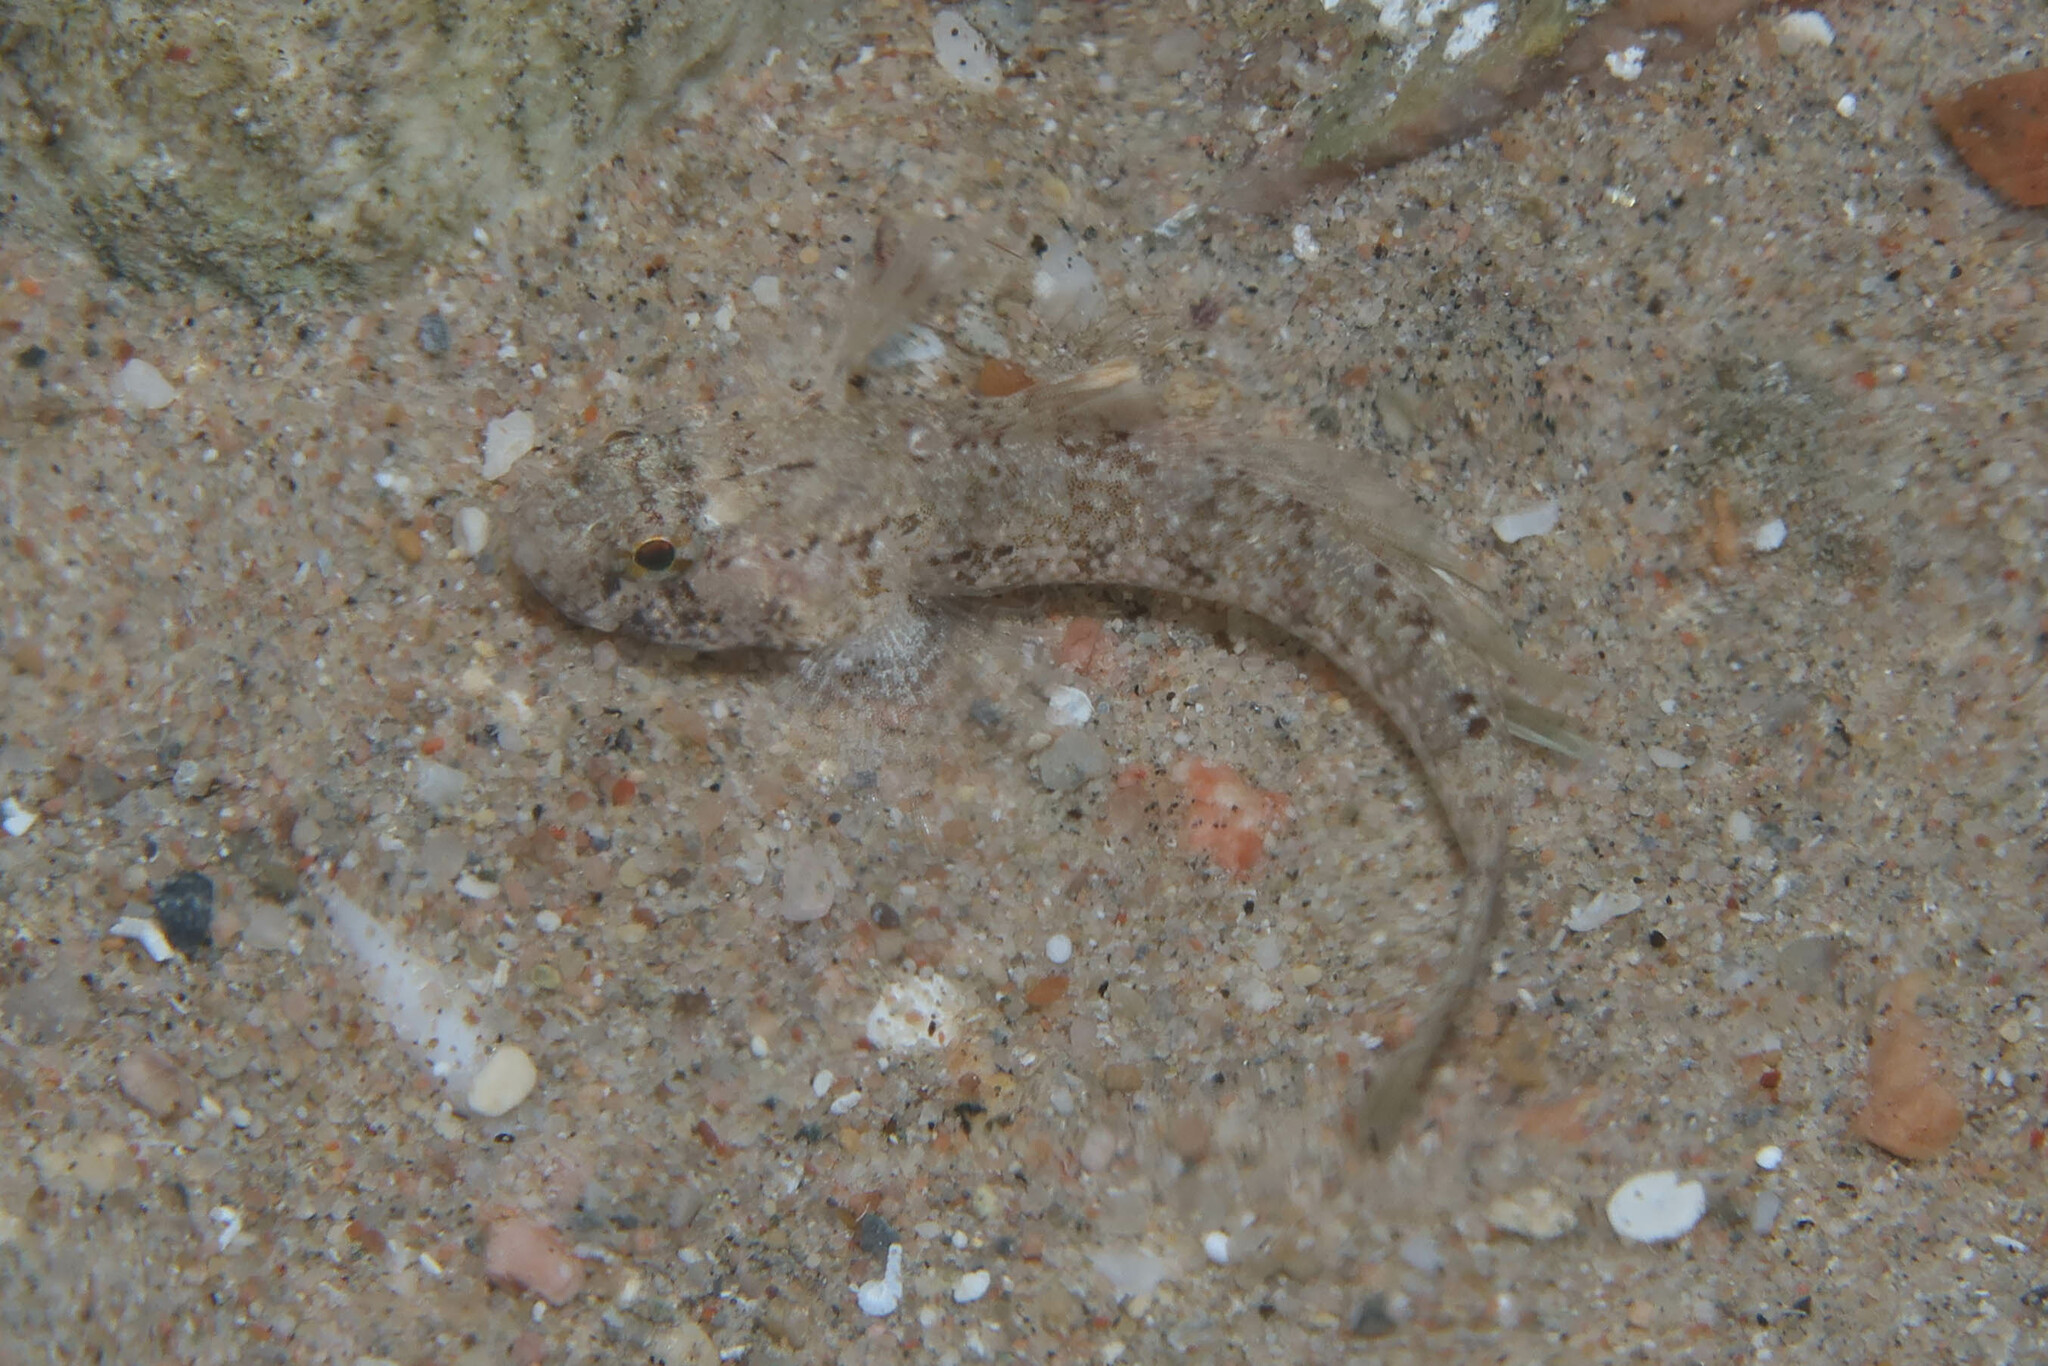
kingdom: Animalia
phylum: Chordata
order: Perciformes
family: Gobiidae
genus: Coryogalops
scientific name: Coryogalops anomolus
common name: Anomolous goby
